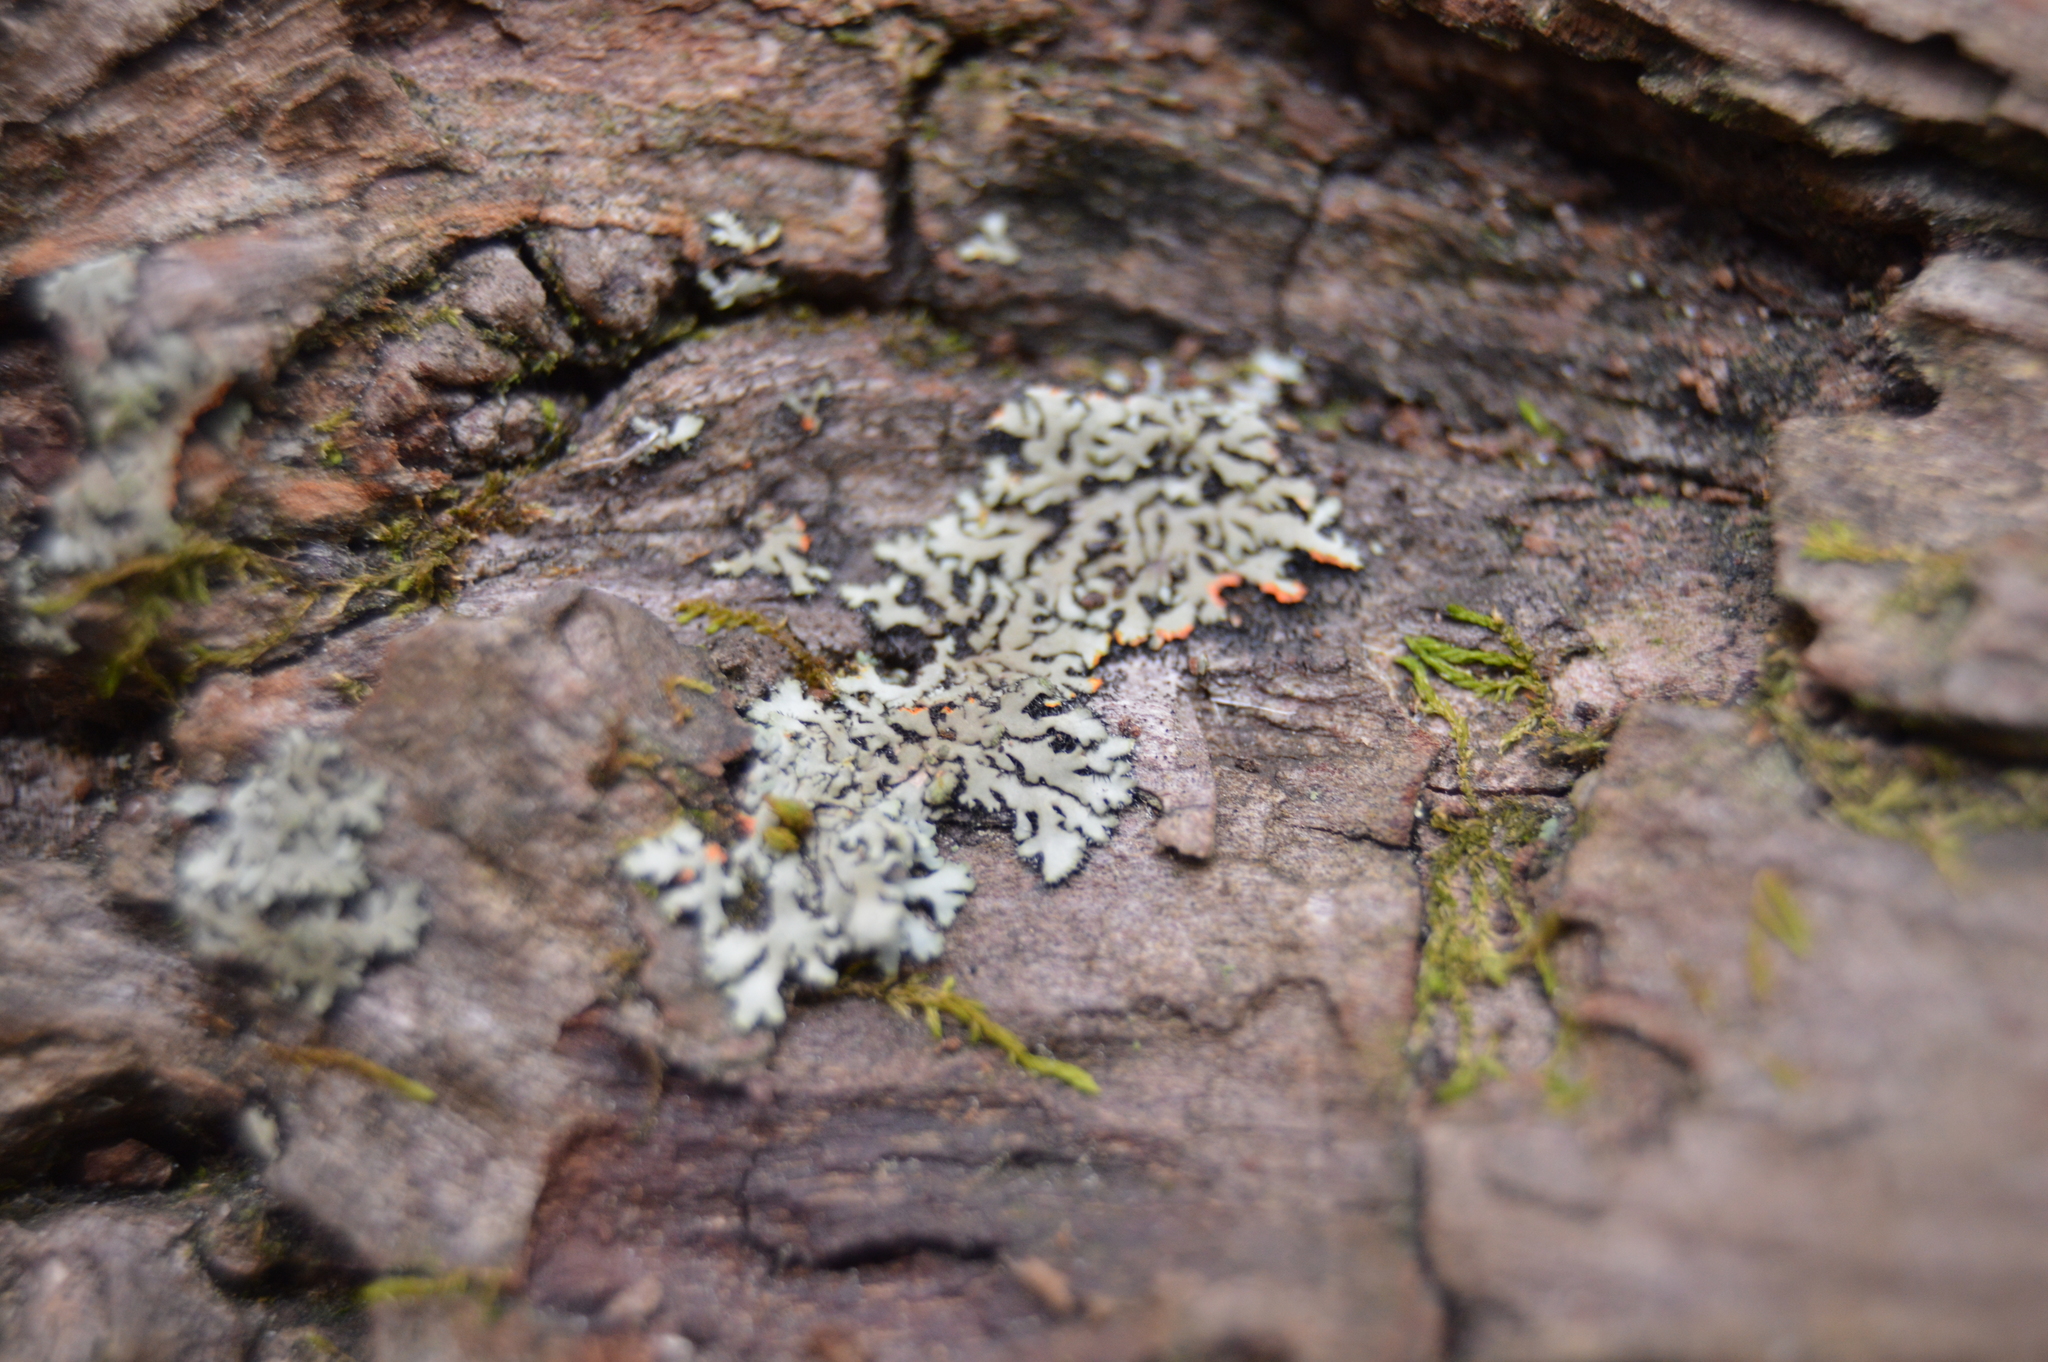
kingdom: Fungi
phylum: Ascomycota
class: Lecanoromycetes
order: Caliciales
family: Physciaceae
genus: Phaeophyscia
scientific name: Phaeophyscia rubropulchra
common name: Orange-cored shadow lichen
